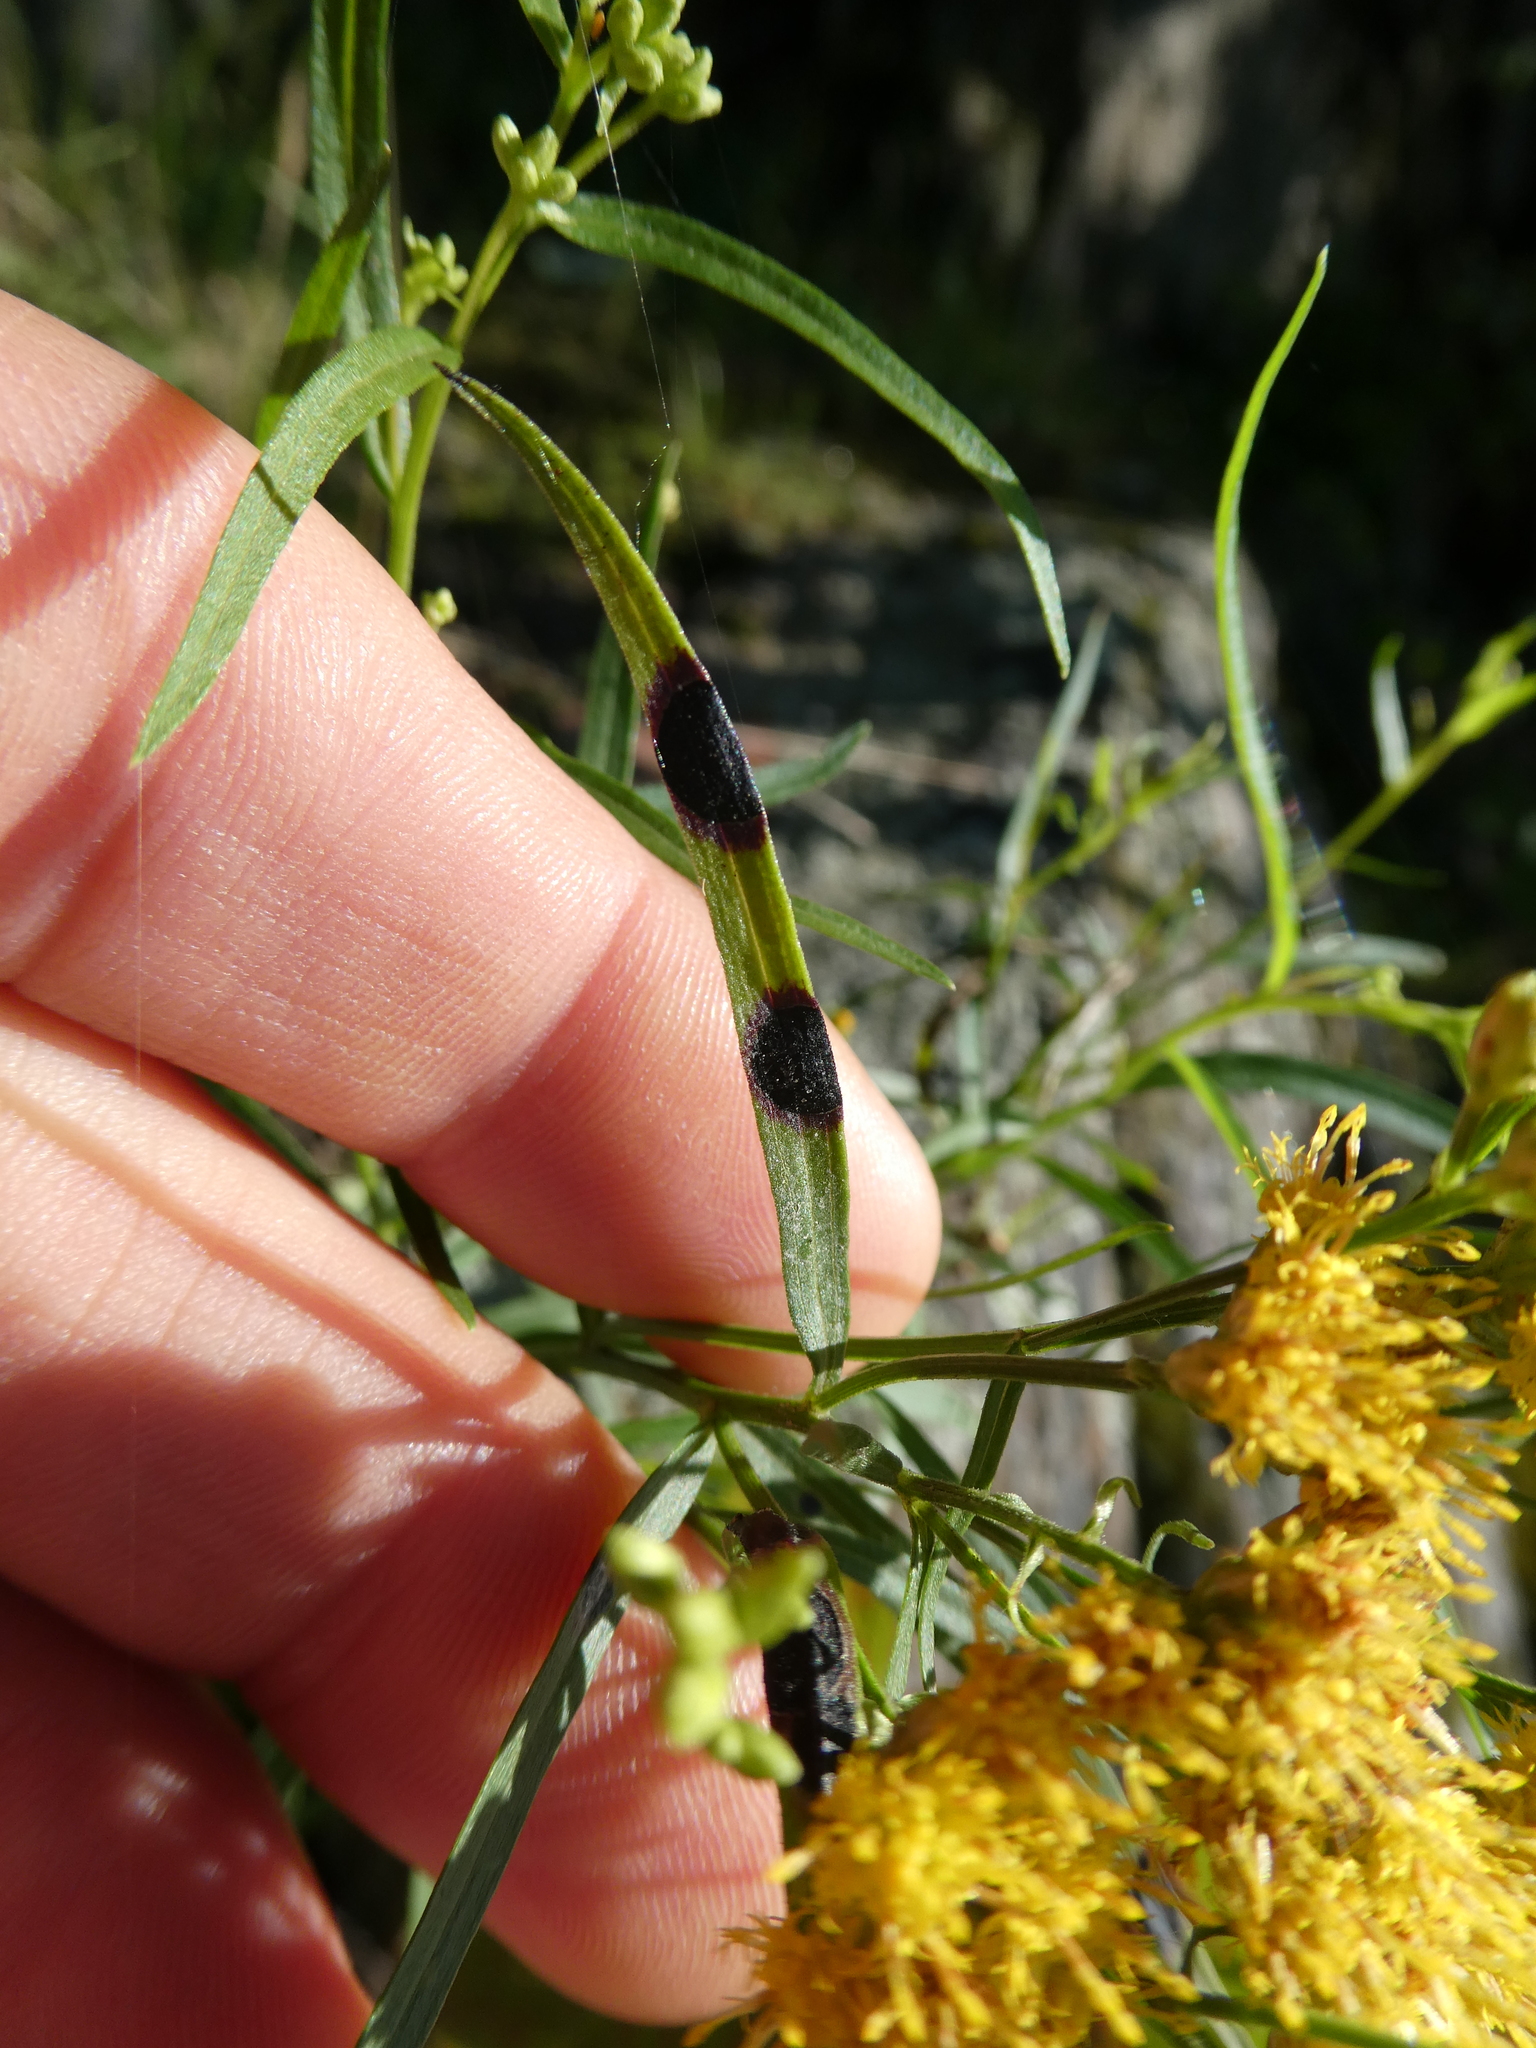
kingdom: Animalia
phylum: Arthropoda
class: Insecta
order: Diptera
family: Cecidomyiidae
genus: Asteromyia
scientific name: Asteromyia euthamiae
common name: Euthamia leaf gall midge
